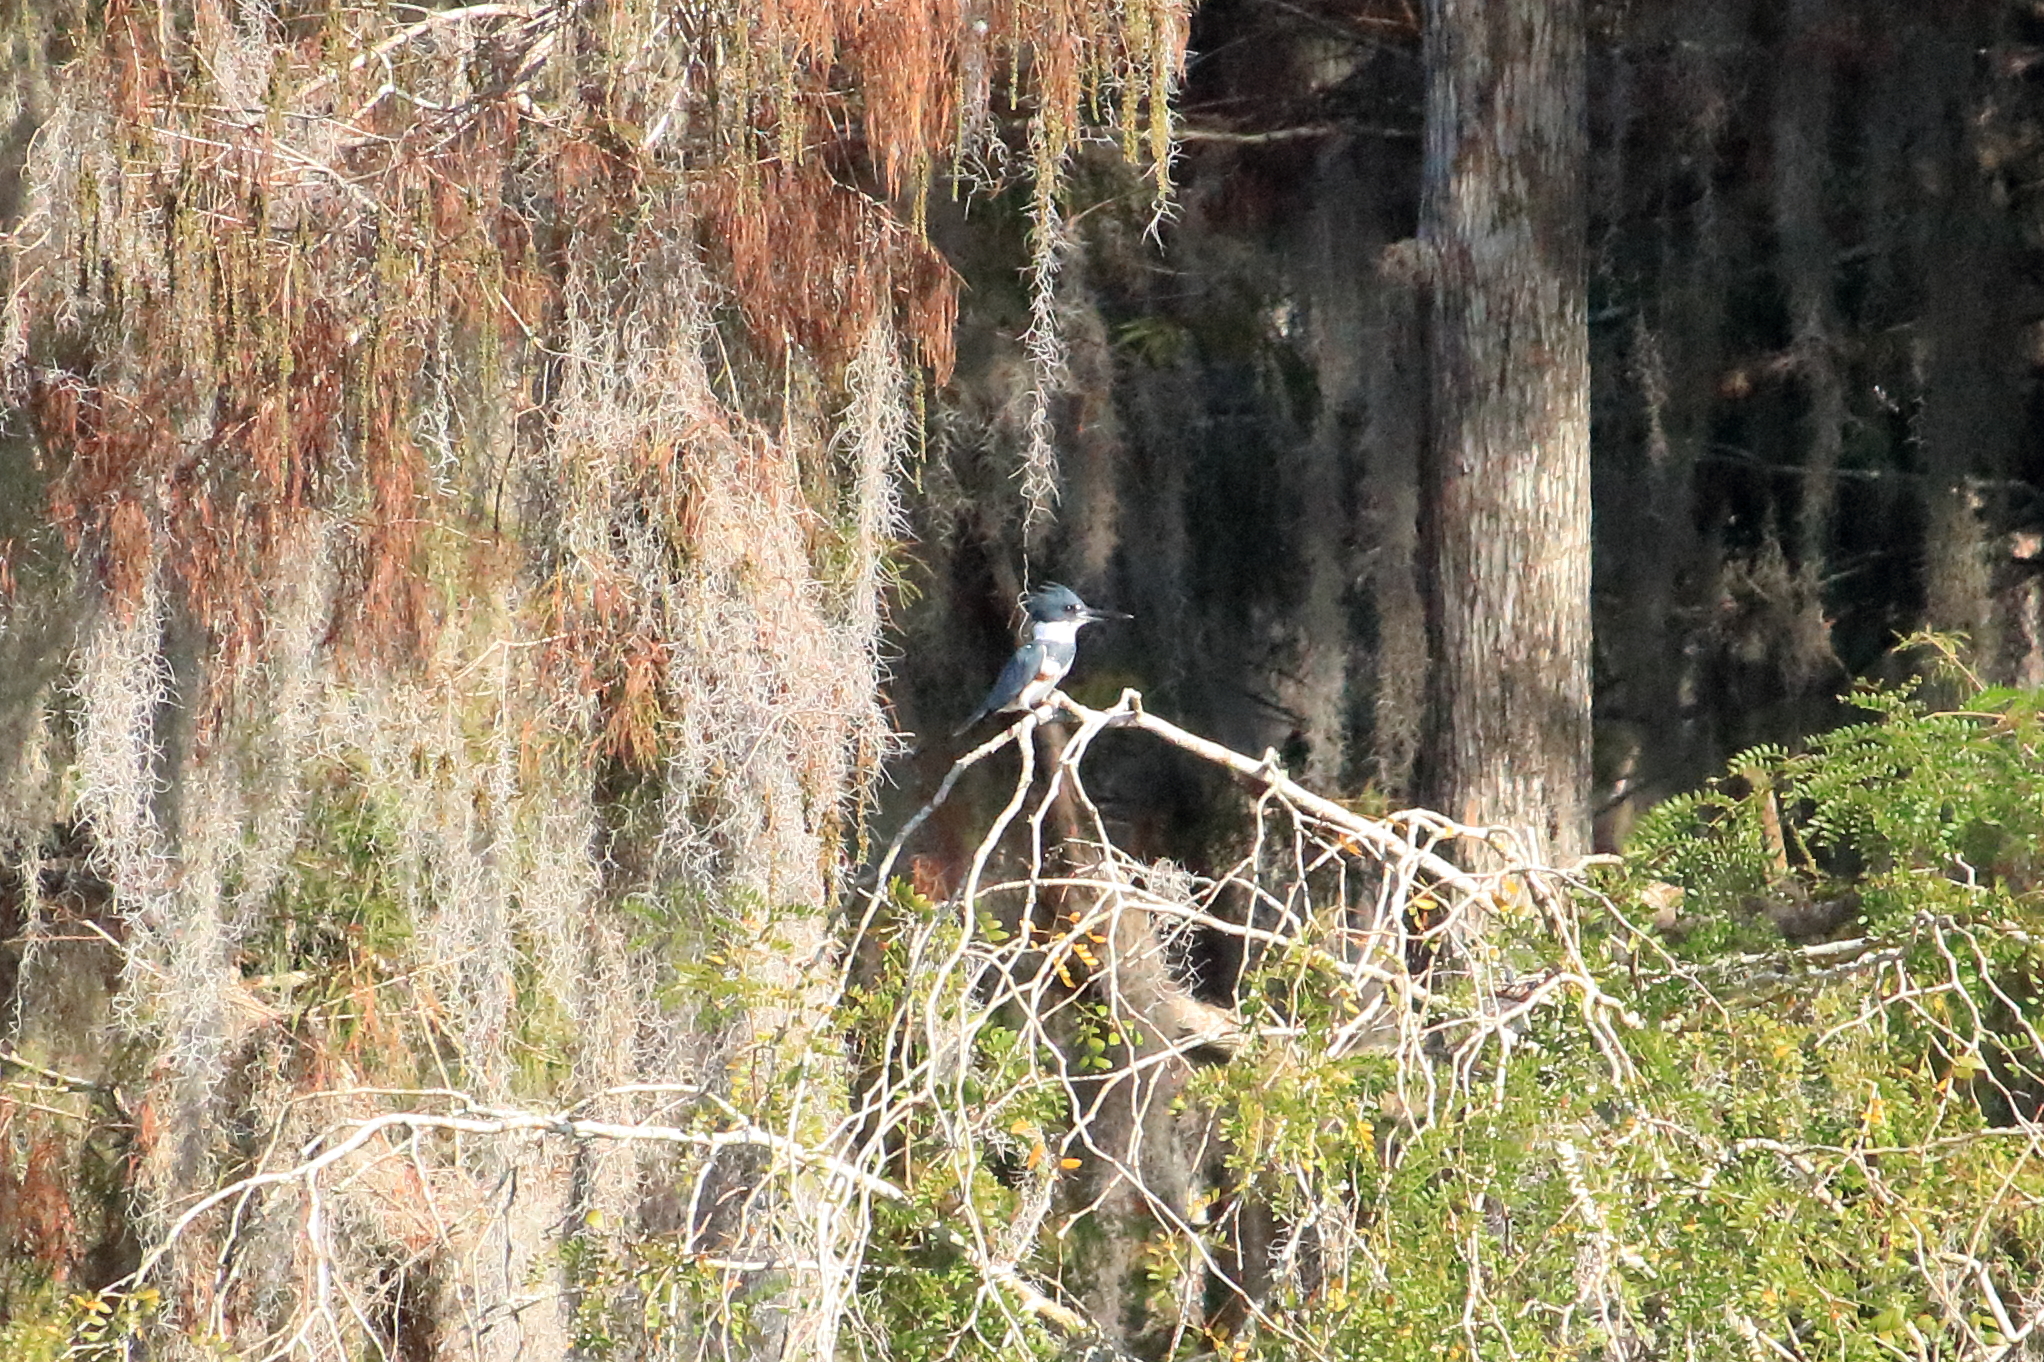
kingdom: Animalia
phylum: Chordata
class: Aves
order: Coraciiformes
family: Alcedinidae
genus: Megaceryle
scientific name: Megaceryle alcyon
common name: Belted kingfisher
